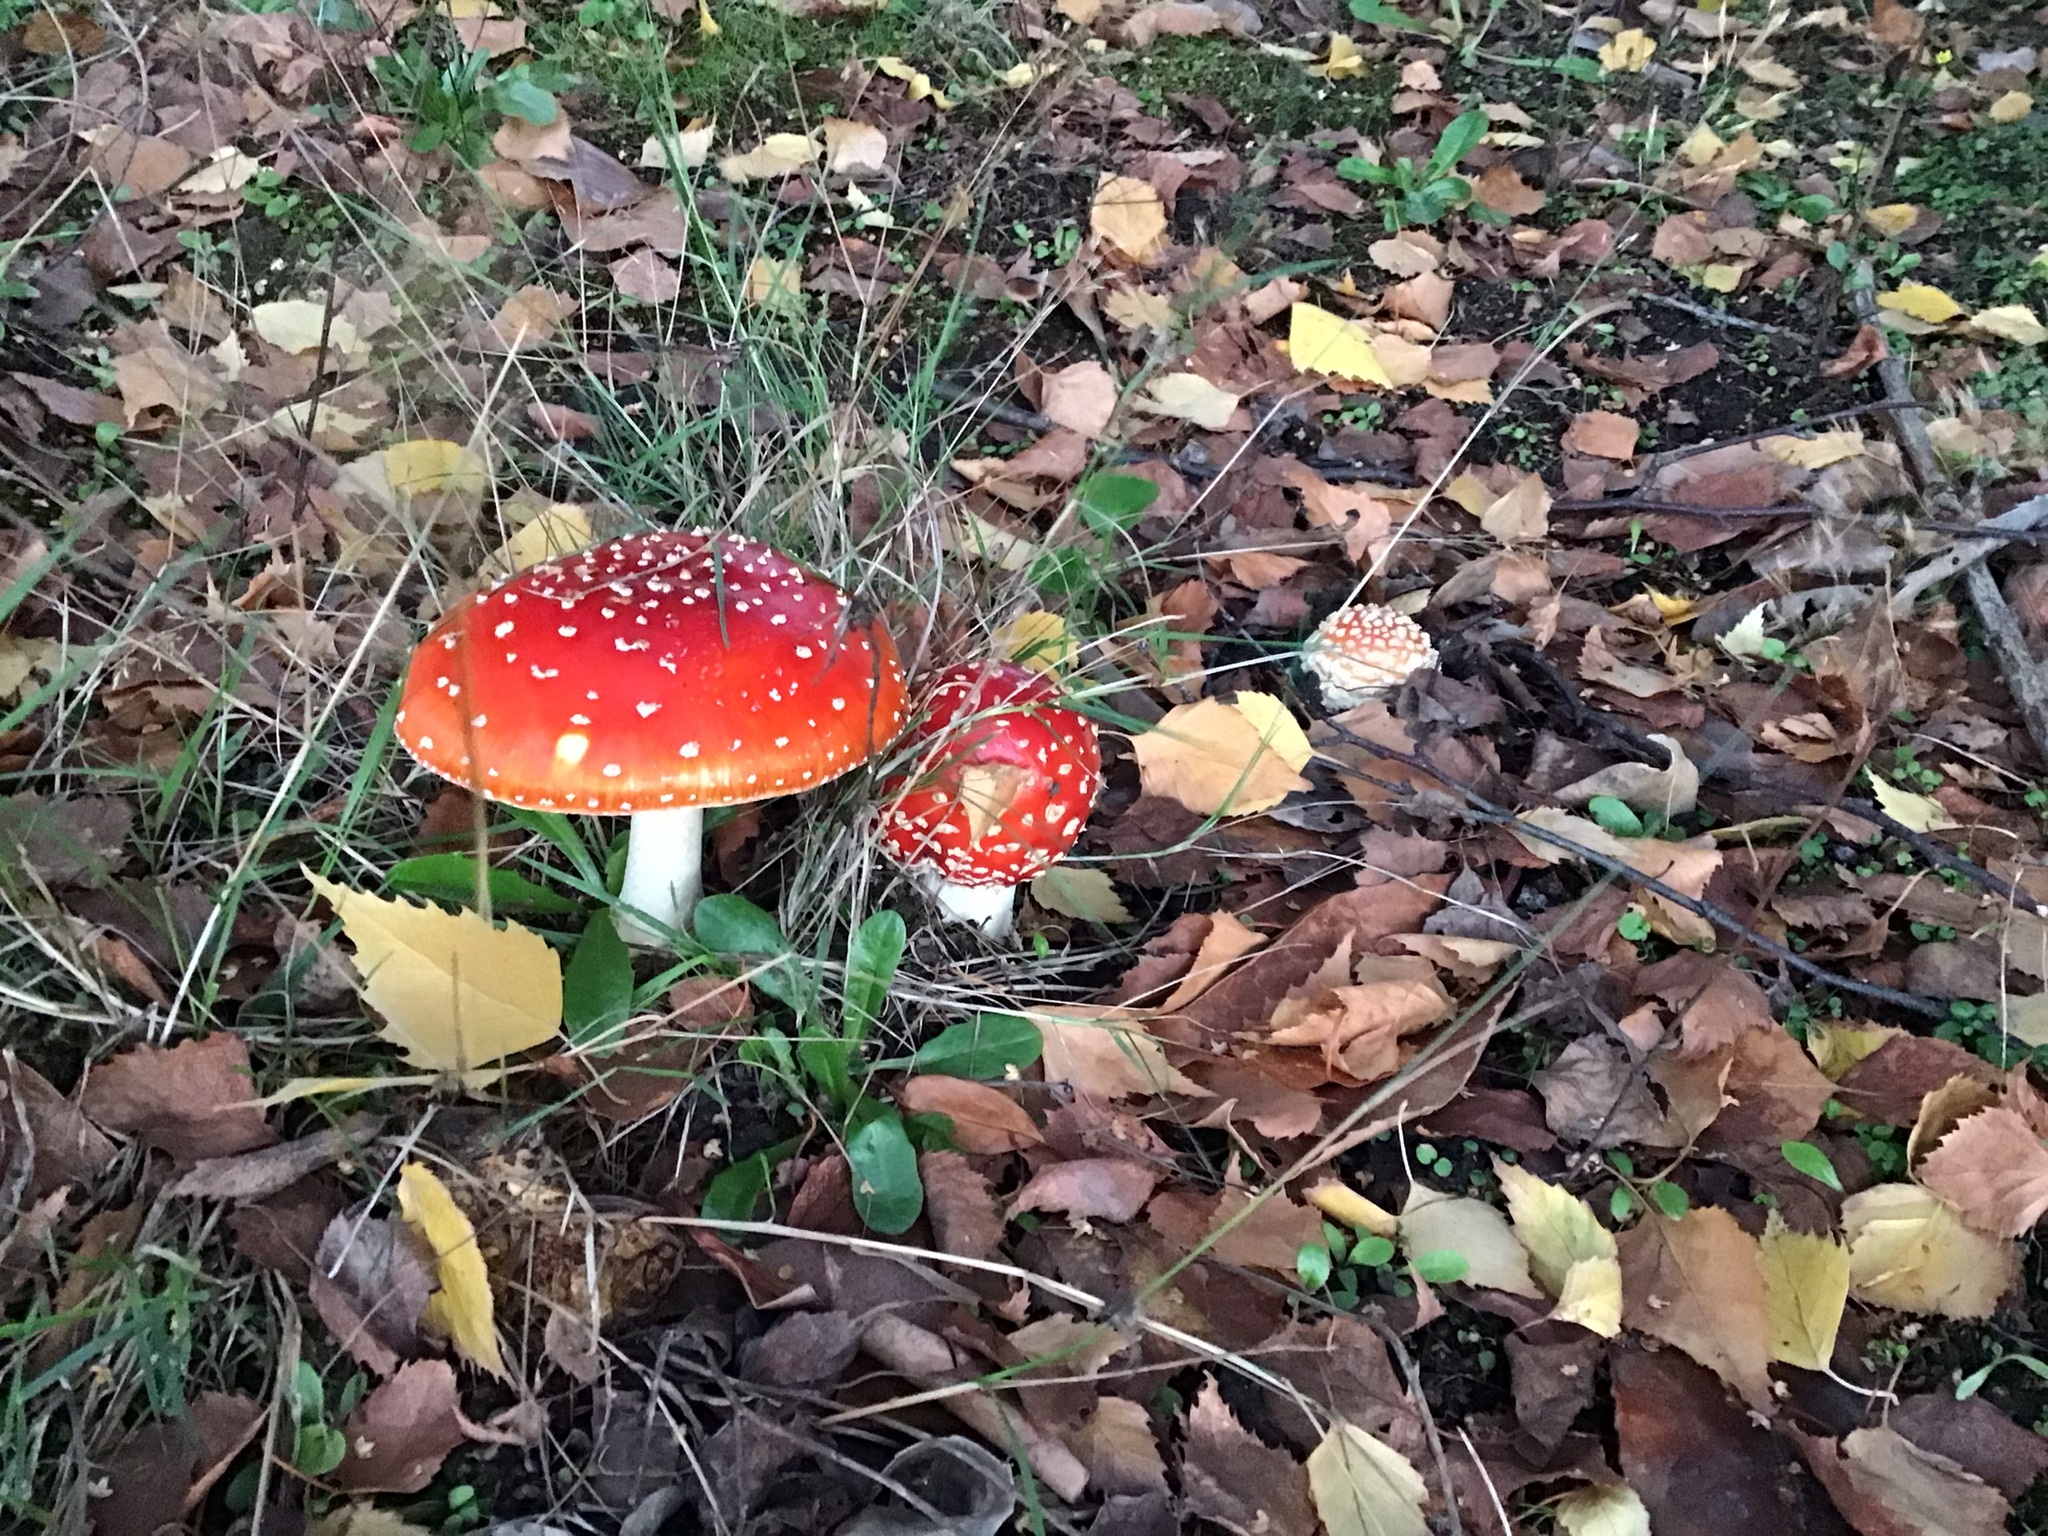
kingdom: Fungi
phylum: Basidiomycota
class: Agaricomycetes
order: Agaricales
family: Amanitaceae
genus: Amanita
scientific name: Amanita muscaria
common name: Fly agaric
